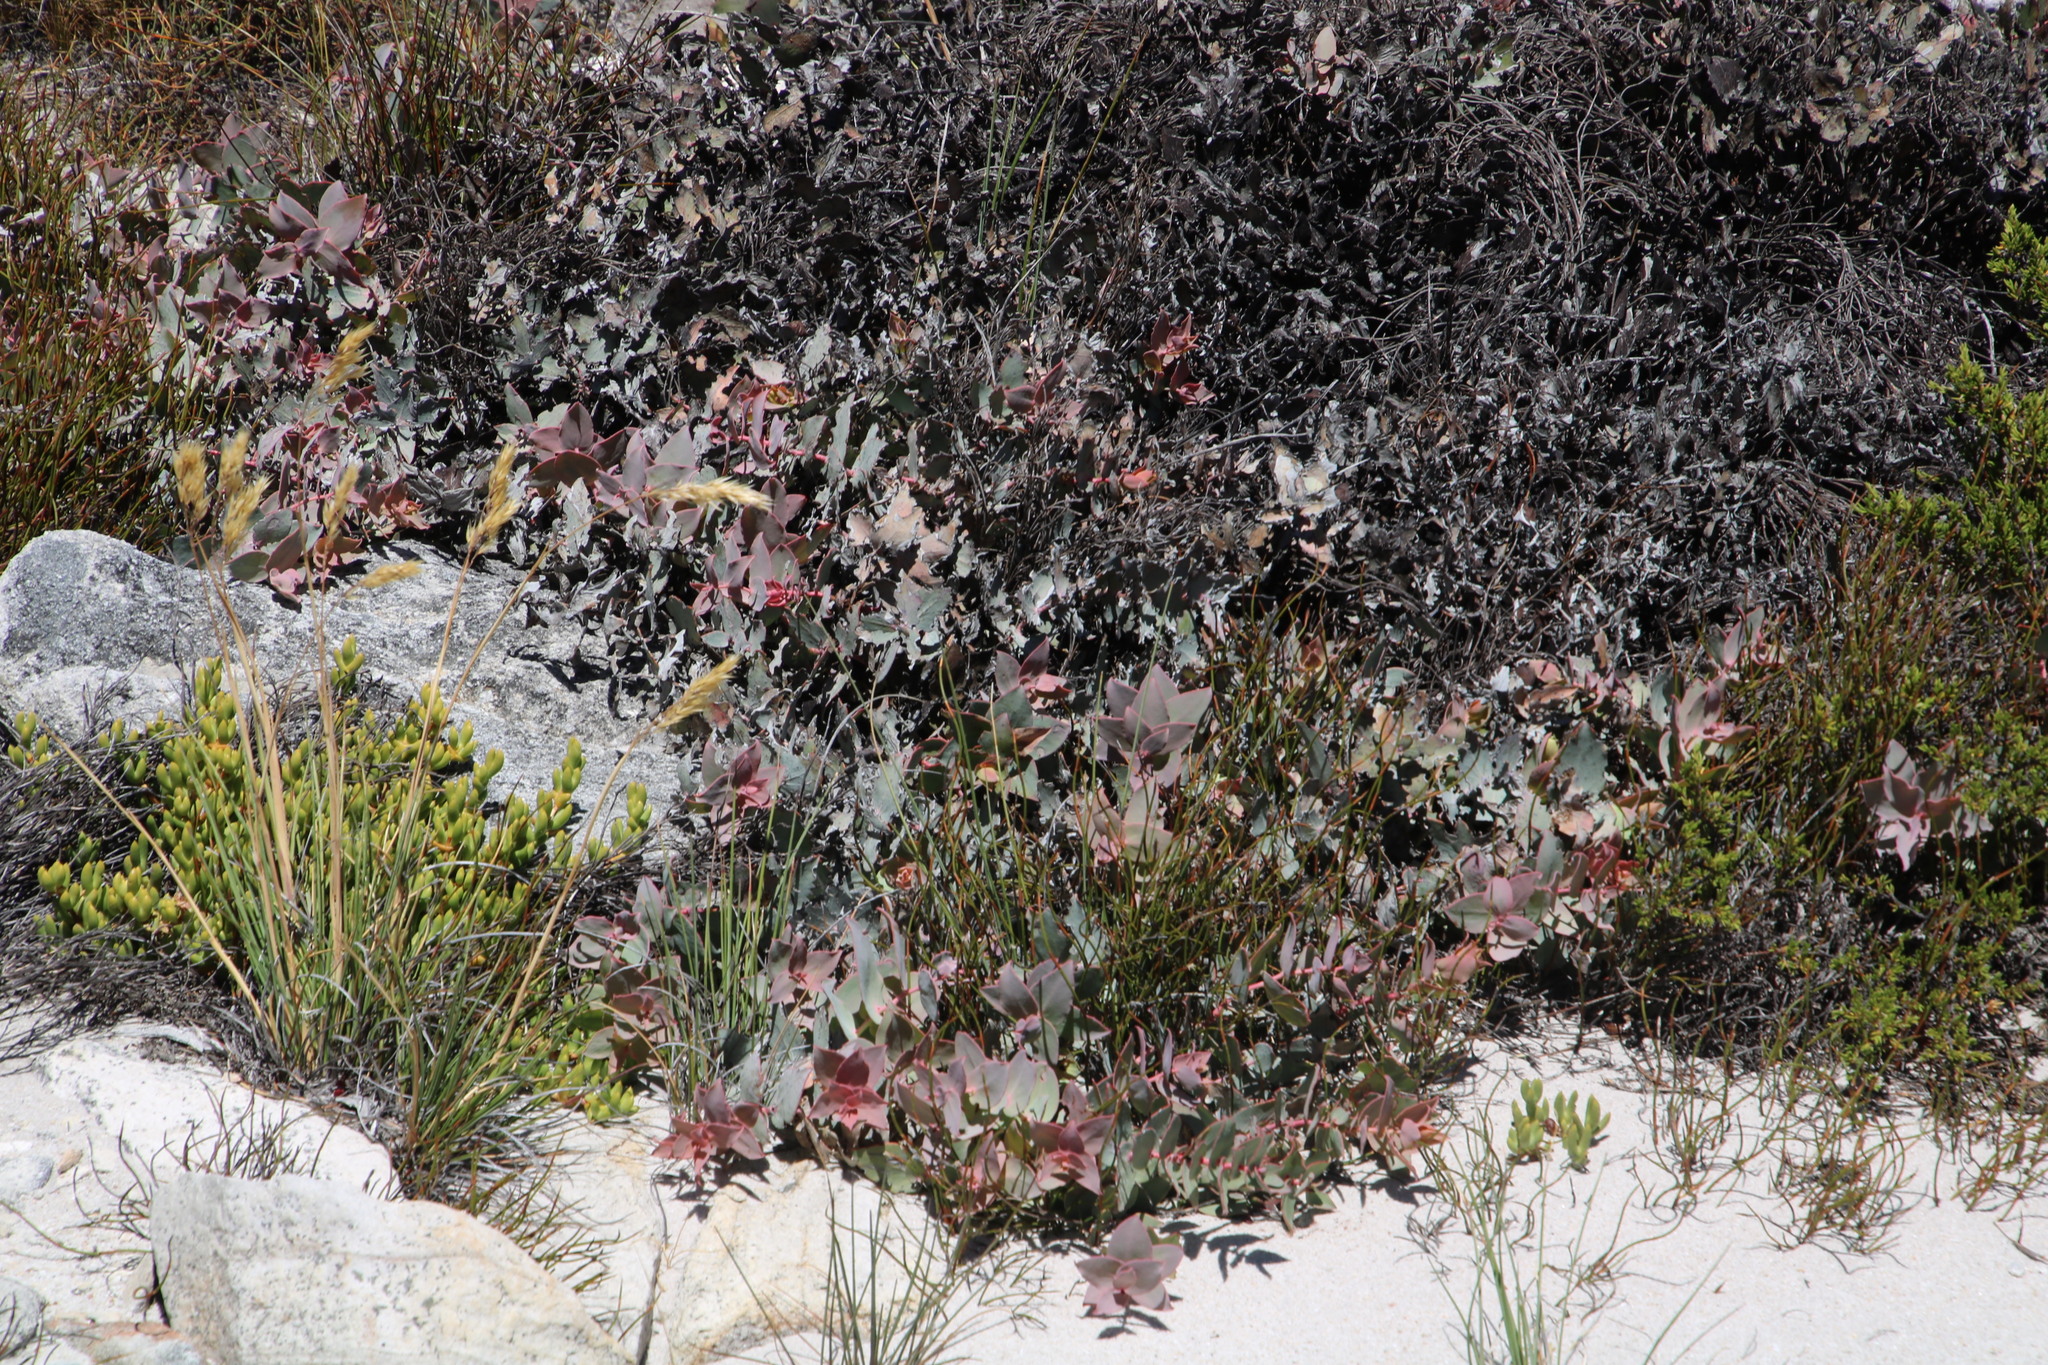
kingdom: Plantae
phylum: Tracheophyta
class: Magnoliopsida
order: Proteales
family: Proteaceae
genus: Protea
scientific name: Protea amplexicaulis
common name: Clasping-leaf sugarbush
